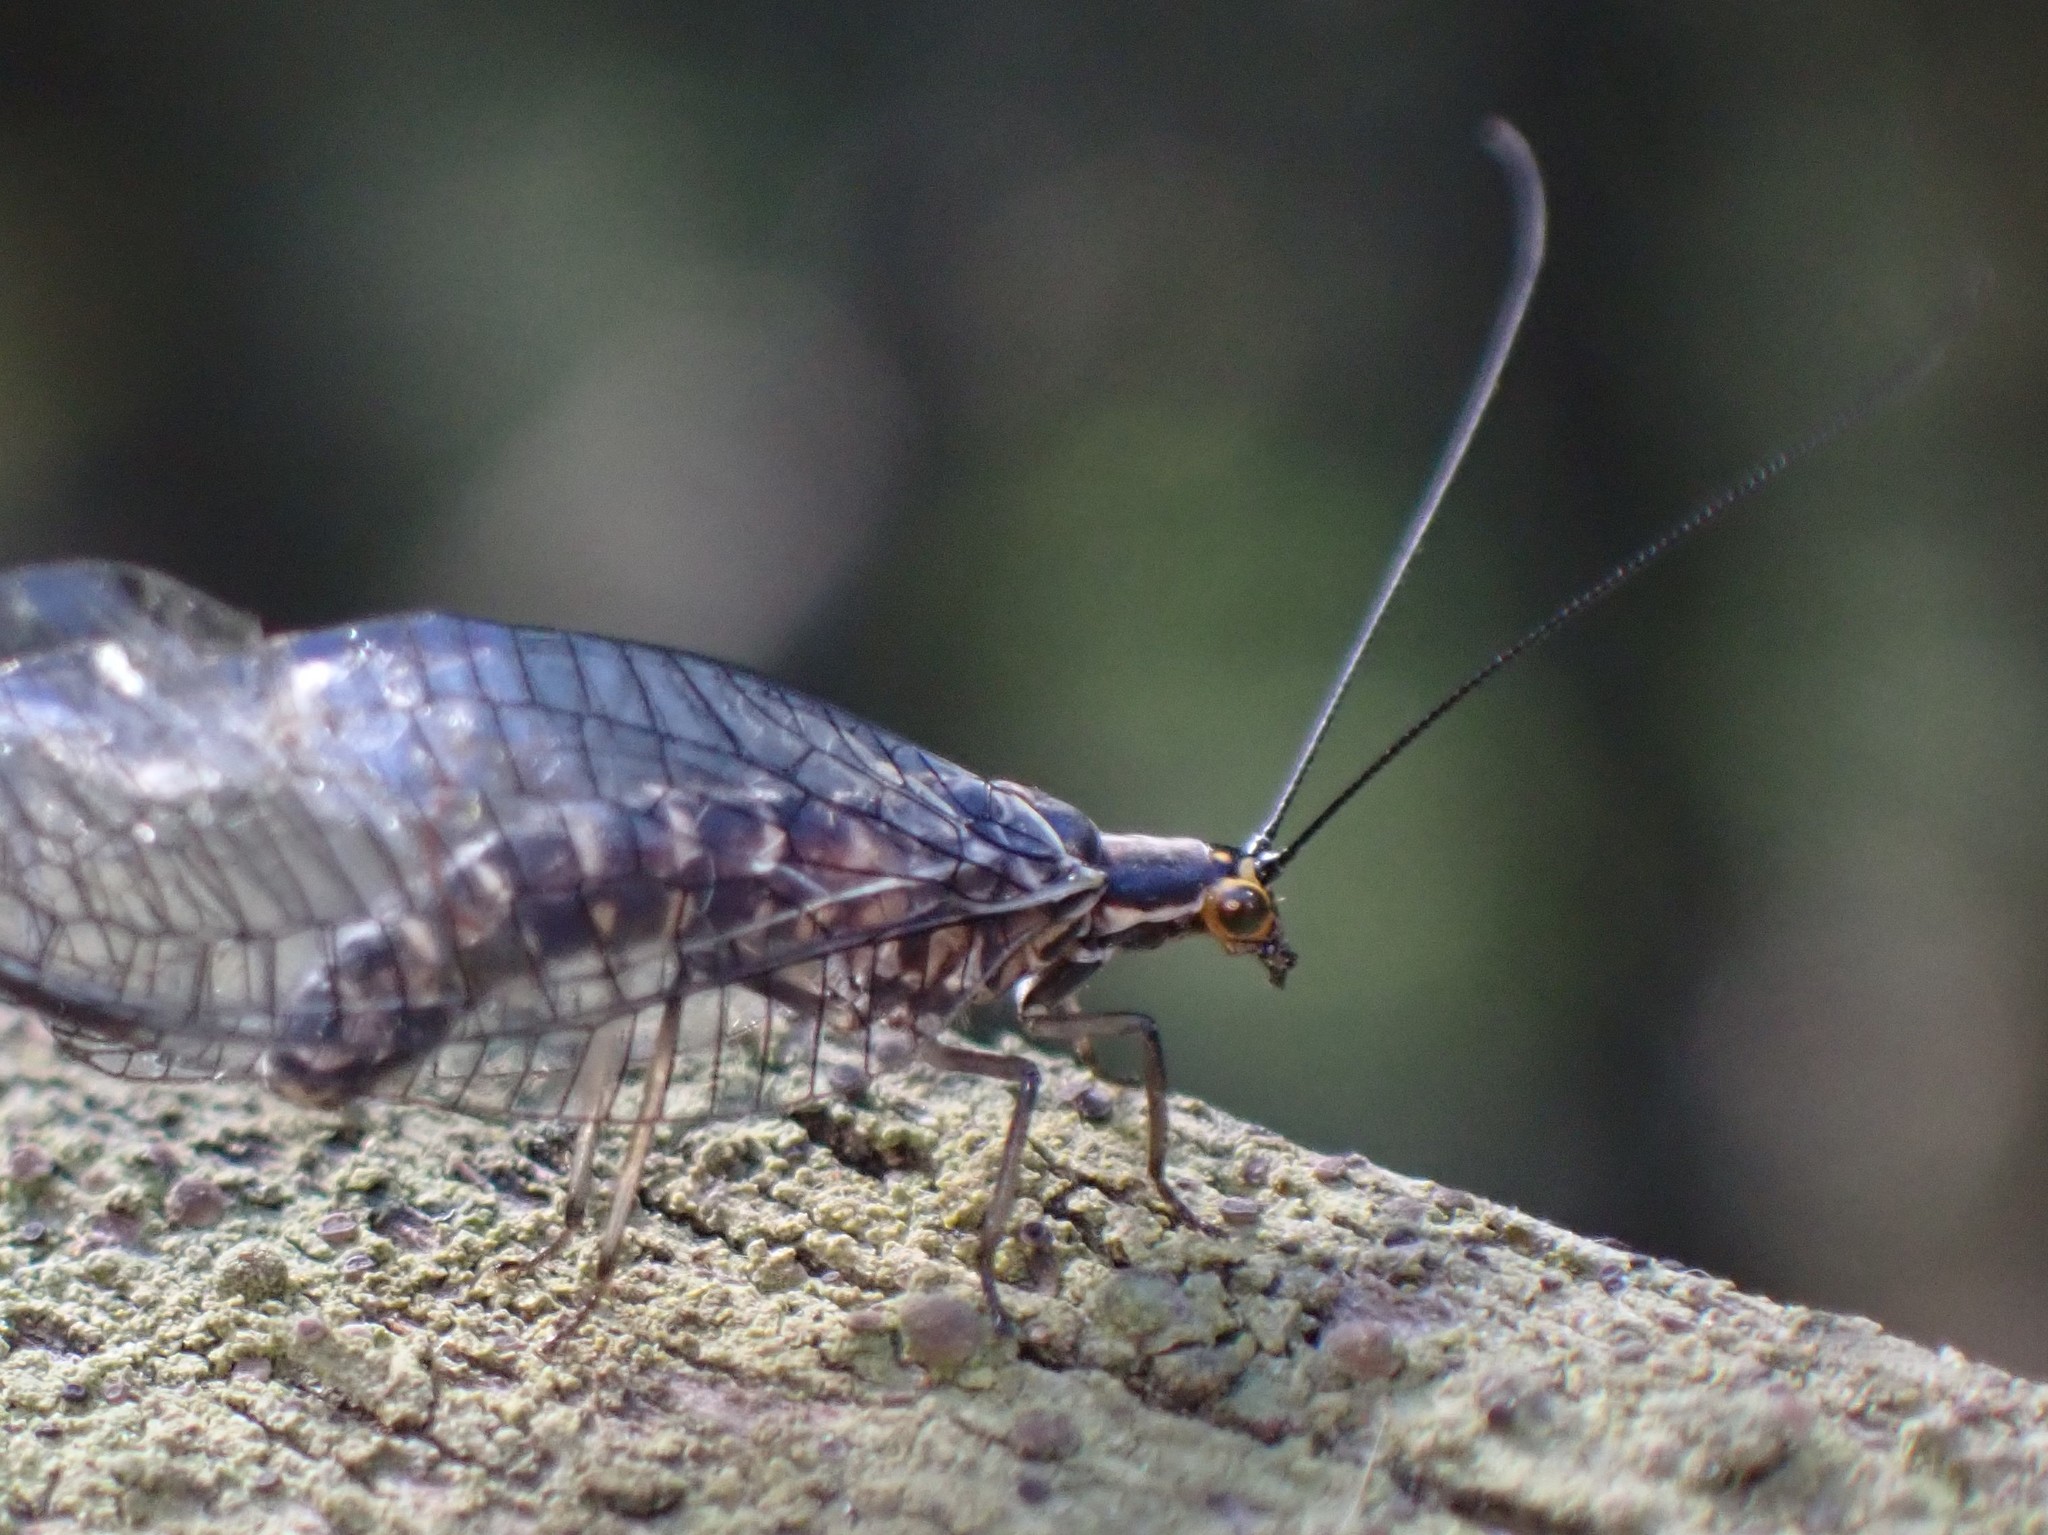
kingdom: Animalia
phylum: Arthropoda
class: Insecta
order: Neuroptera
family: Chrysopidae
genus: Nothochrysa
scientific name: Nothochrysa californica
